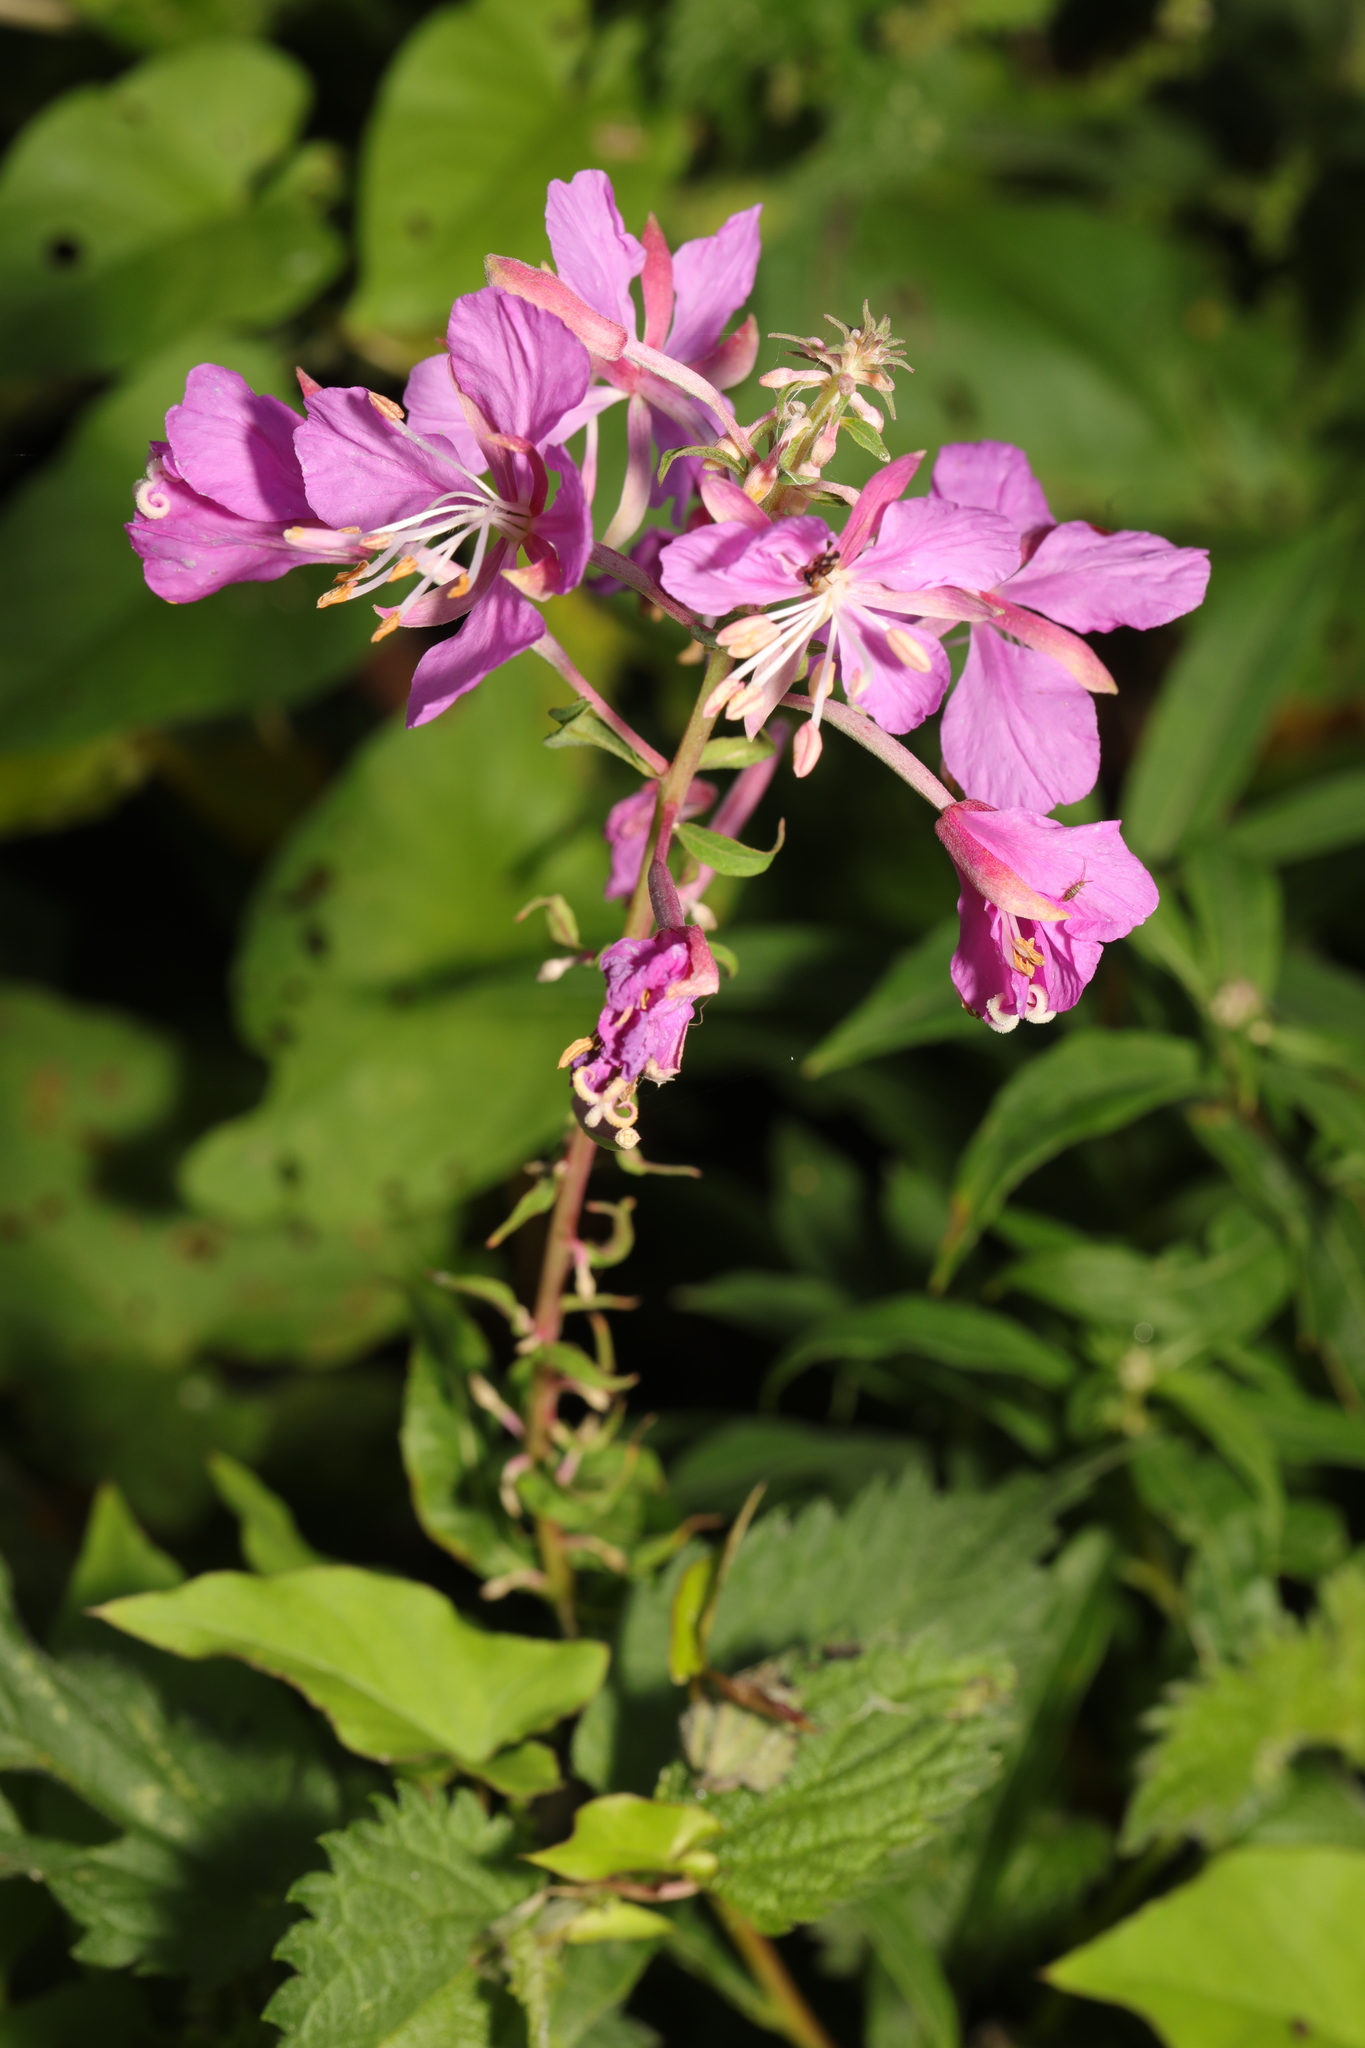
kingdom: Plantae
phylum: Tracheophyta
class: Magnoliopsida
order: Myrtales
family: Onagraceae
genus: Chamaenerion
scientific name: Chamaenerion angustifolium
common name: Fireweed
